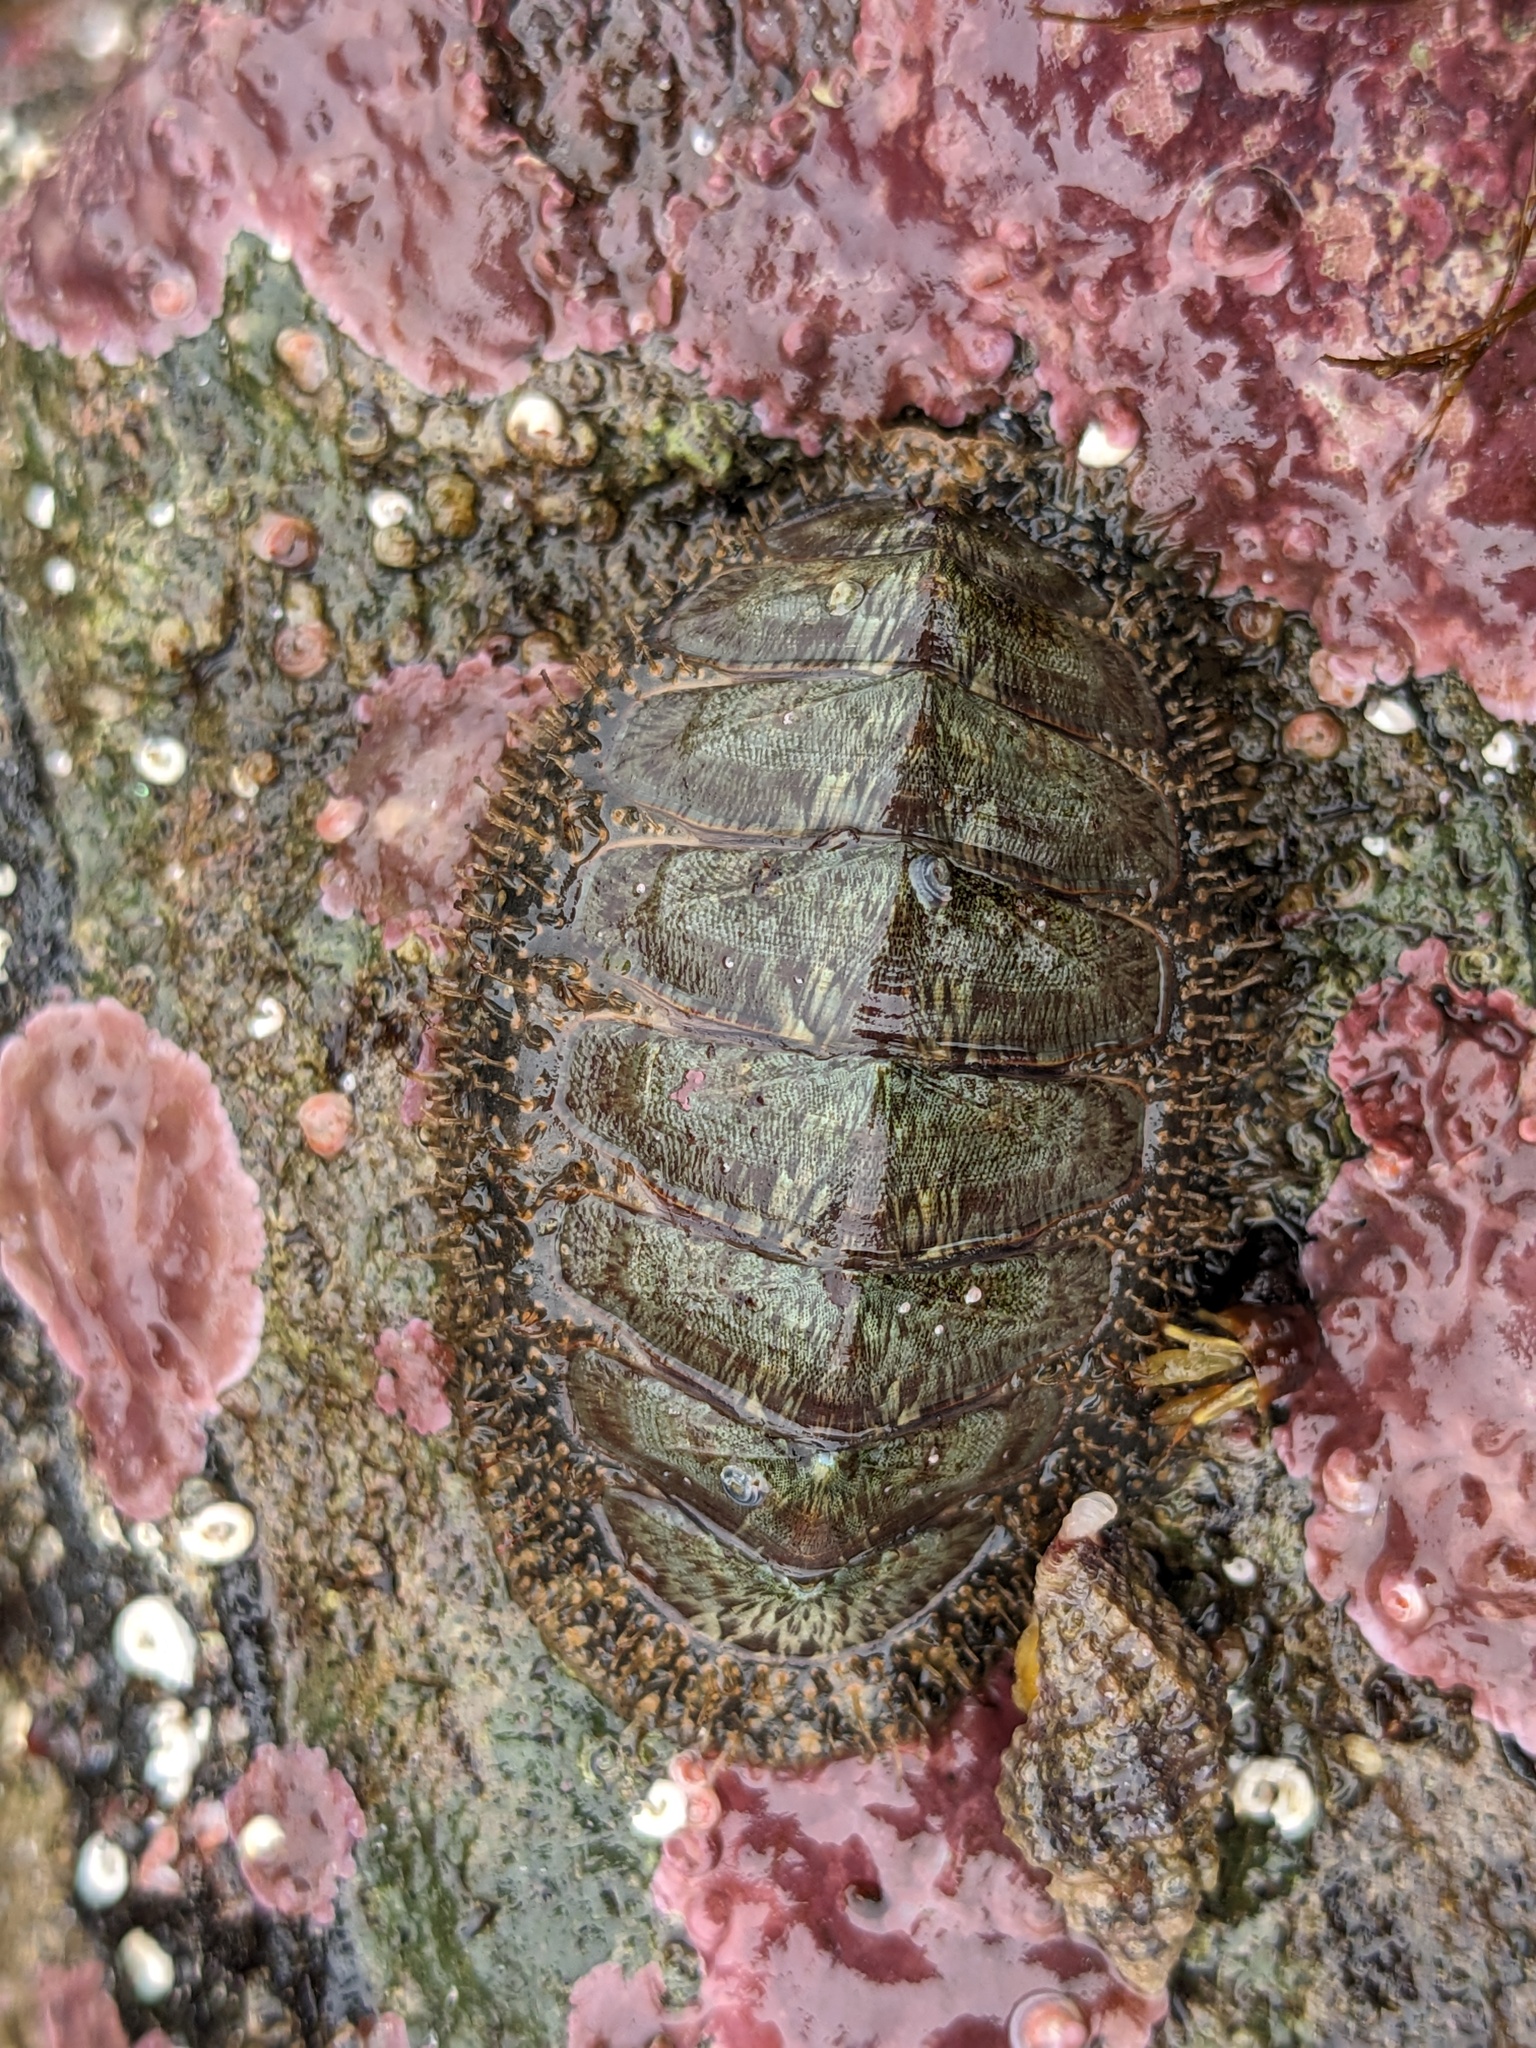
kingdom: Animalia
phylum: Mollusca
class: Polyplacophora
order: Chitonida
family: Mopaliidae
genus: Mopalia
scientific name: Mopalia lignosa
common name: Woody chiton
